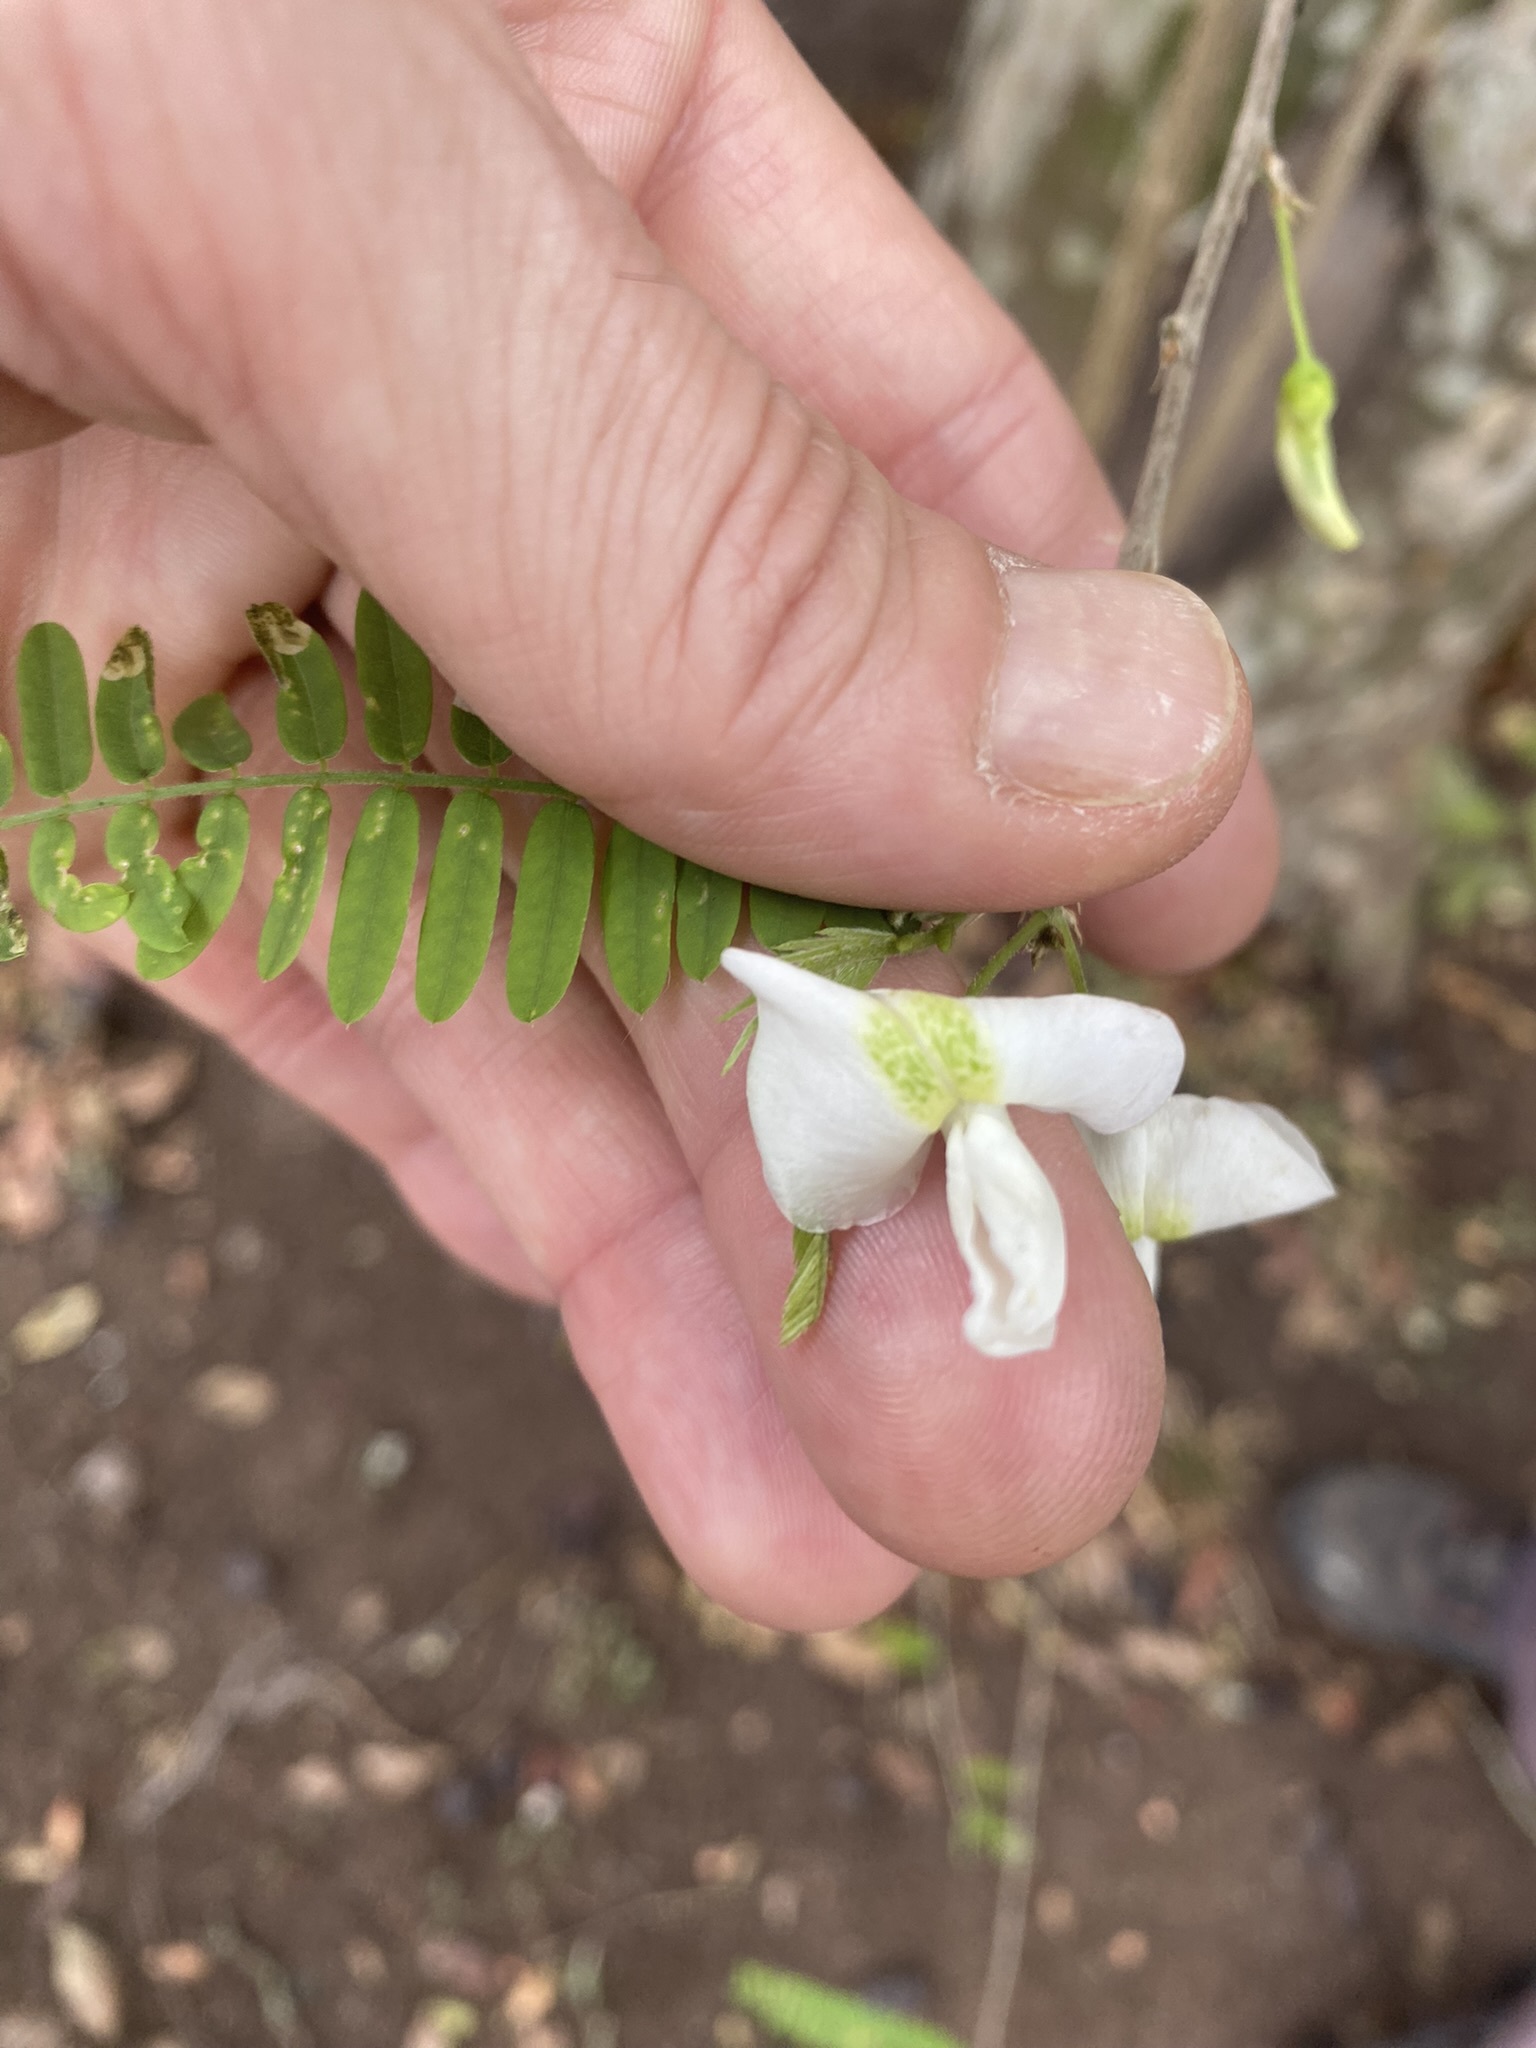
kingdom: Plantae
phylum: Tracheophyta
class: Magnoliopsida
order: Fabales
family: Fabaceae
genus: Coursetia
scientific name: Coursetia brachyrhachis
